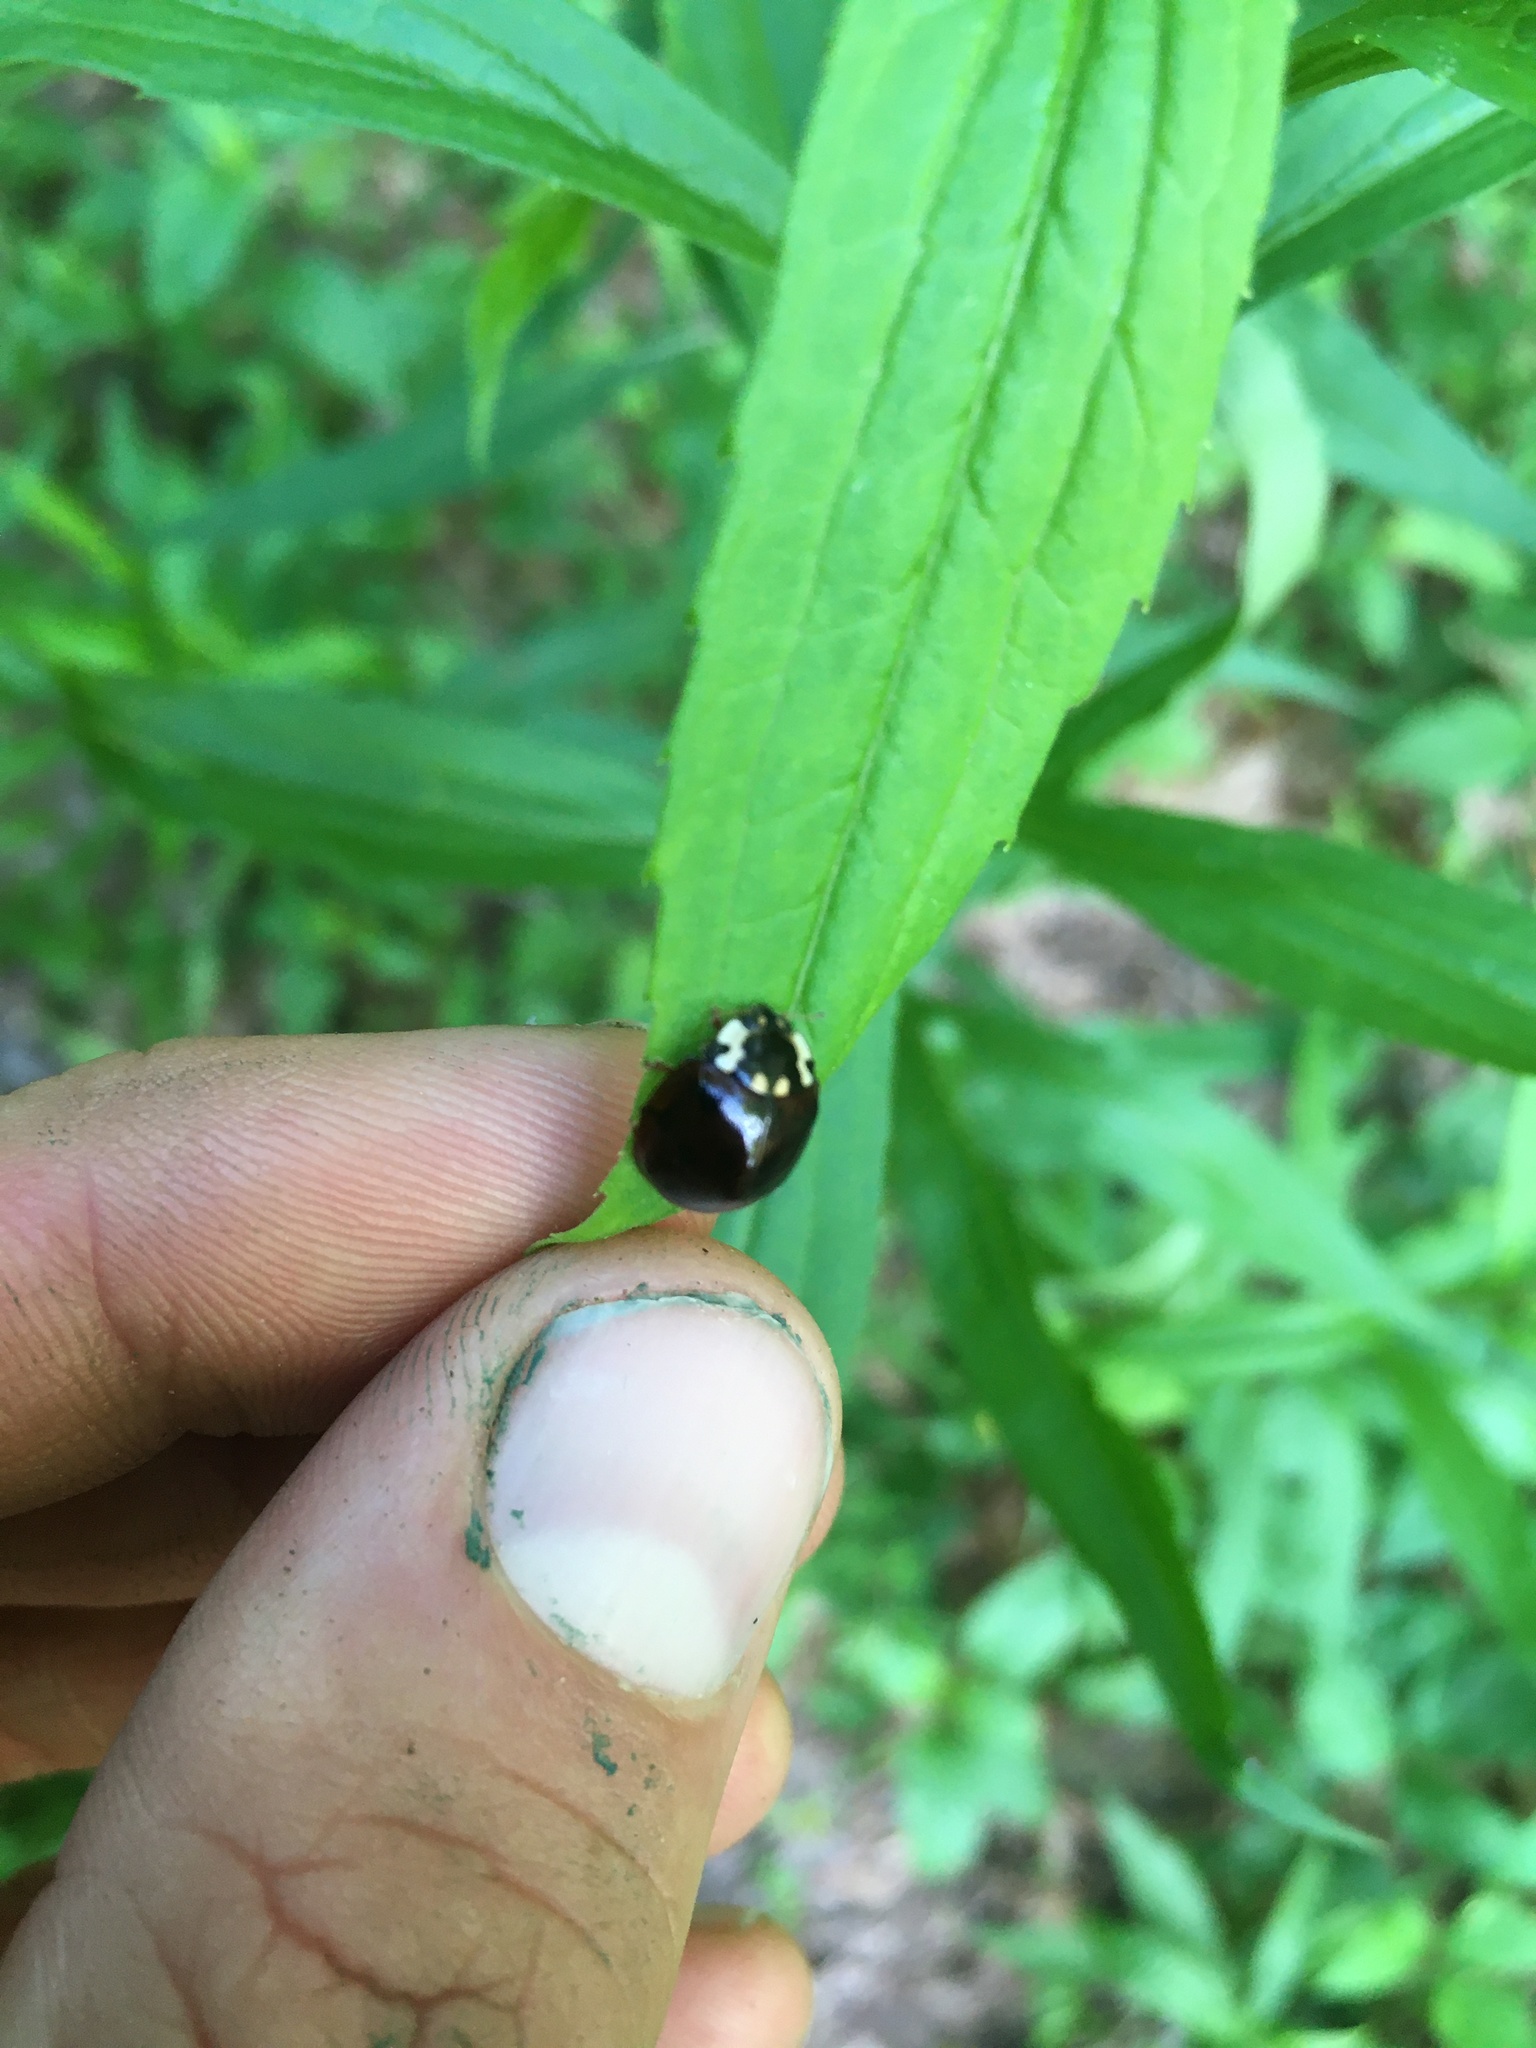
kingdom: Animalia
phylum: Arthropoda
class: Insecta
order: Coleoptera
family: Coccinellidae
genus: Anatis
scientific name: Anatis labiculata
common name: Fifteen-spotted lady beetle
